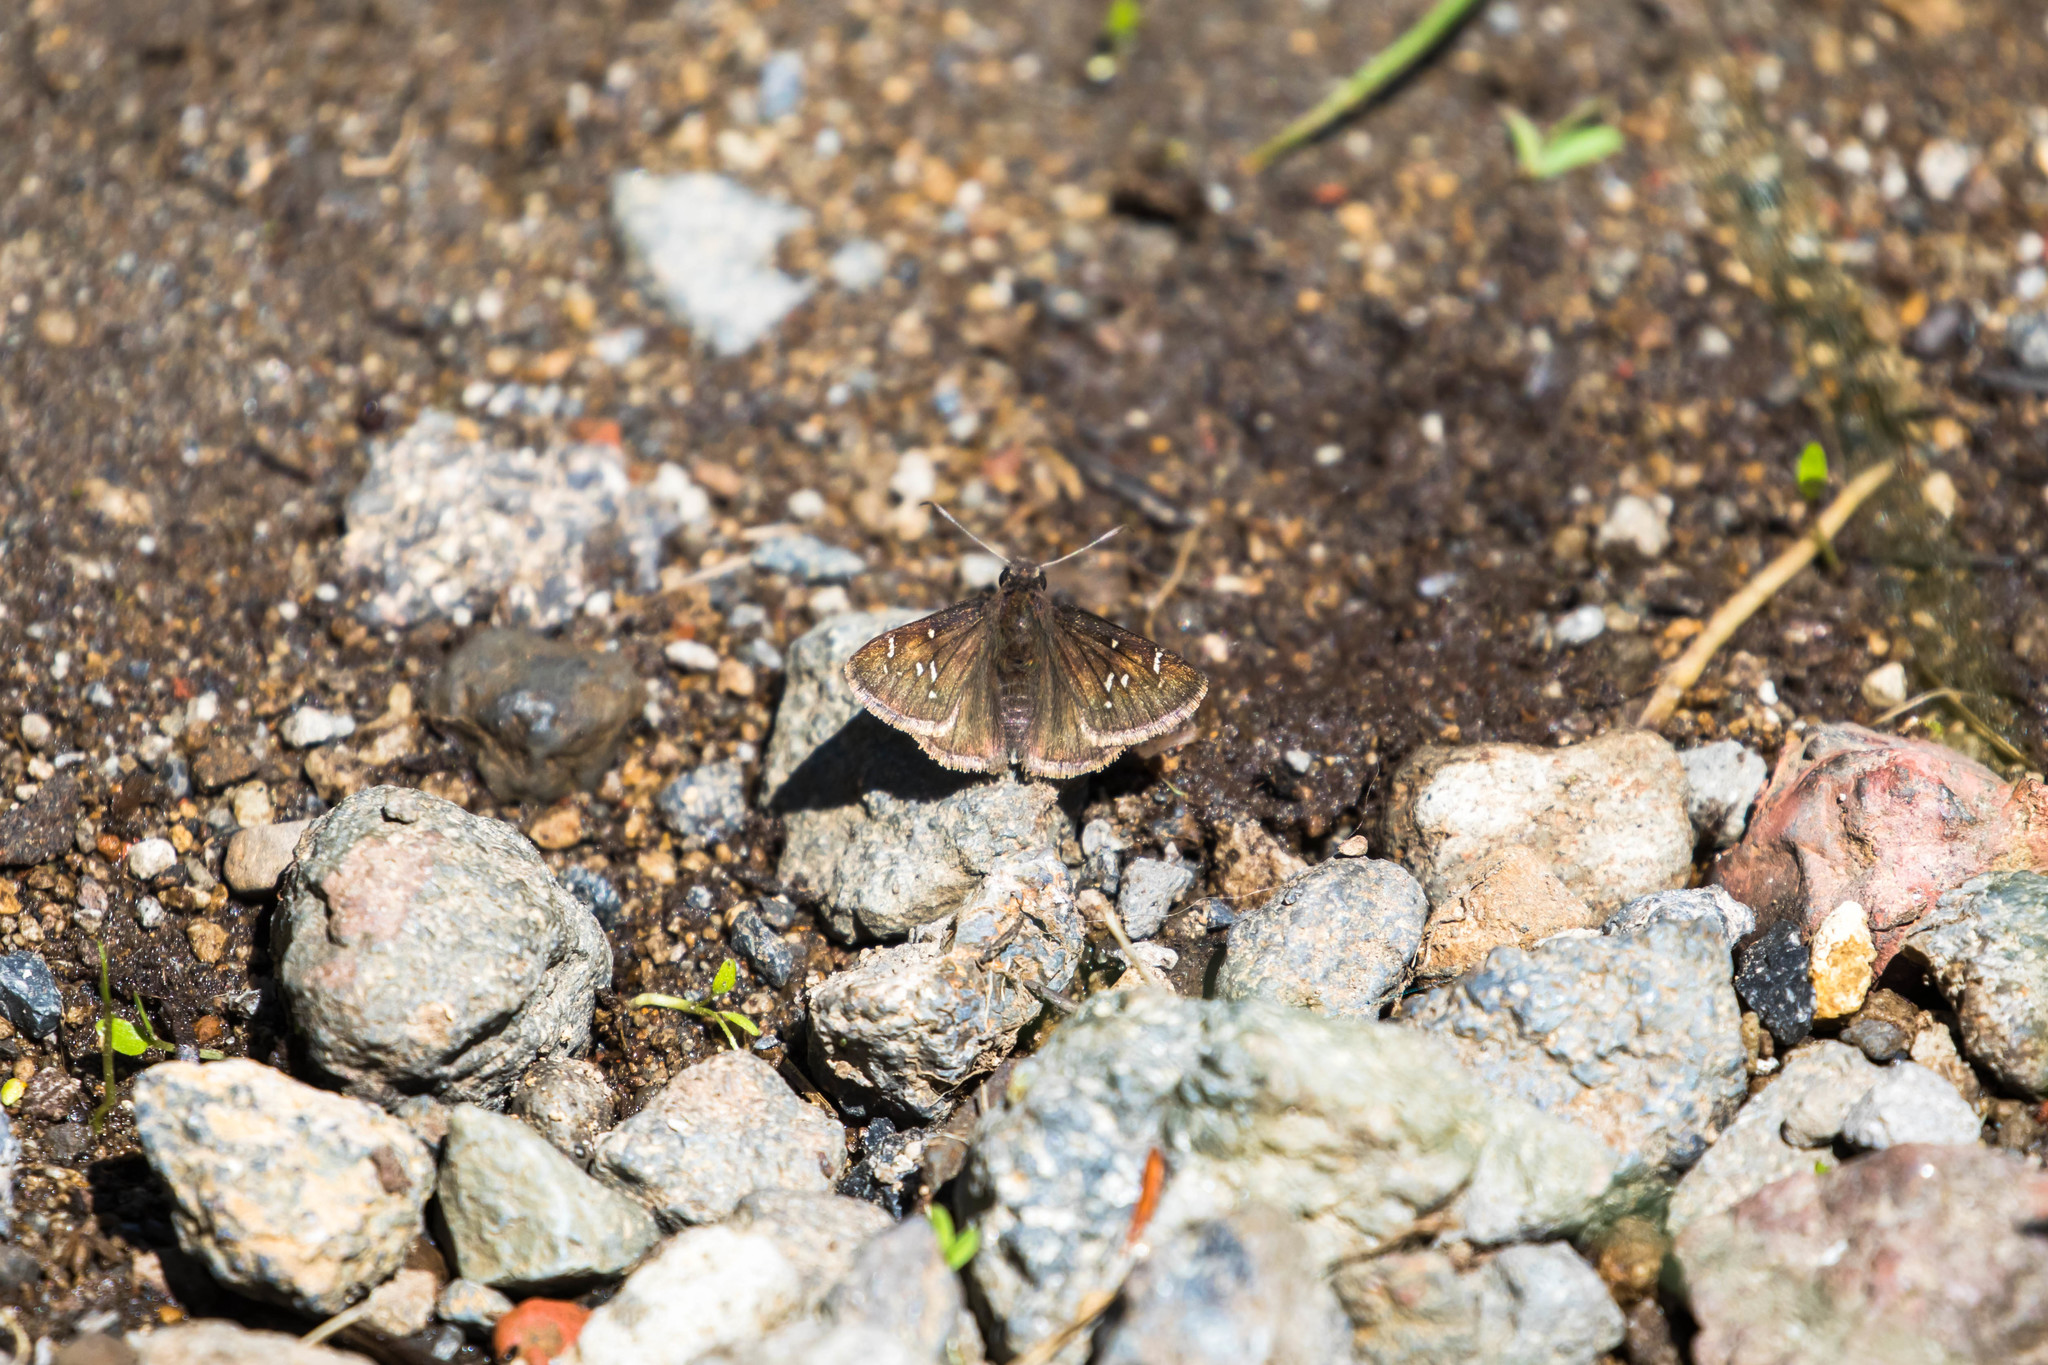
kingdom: Animalia
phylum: Arthropoda
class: Insecta
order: Lepidoptera
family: Hesperiidae
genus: Thorybes
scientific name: Thorybes mexicana
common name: Mexican cloudywing
